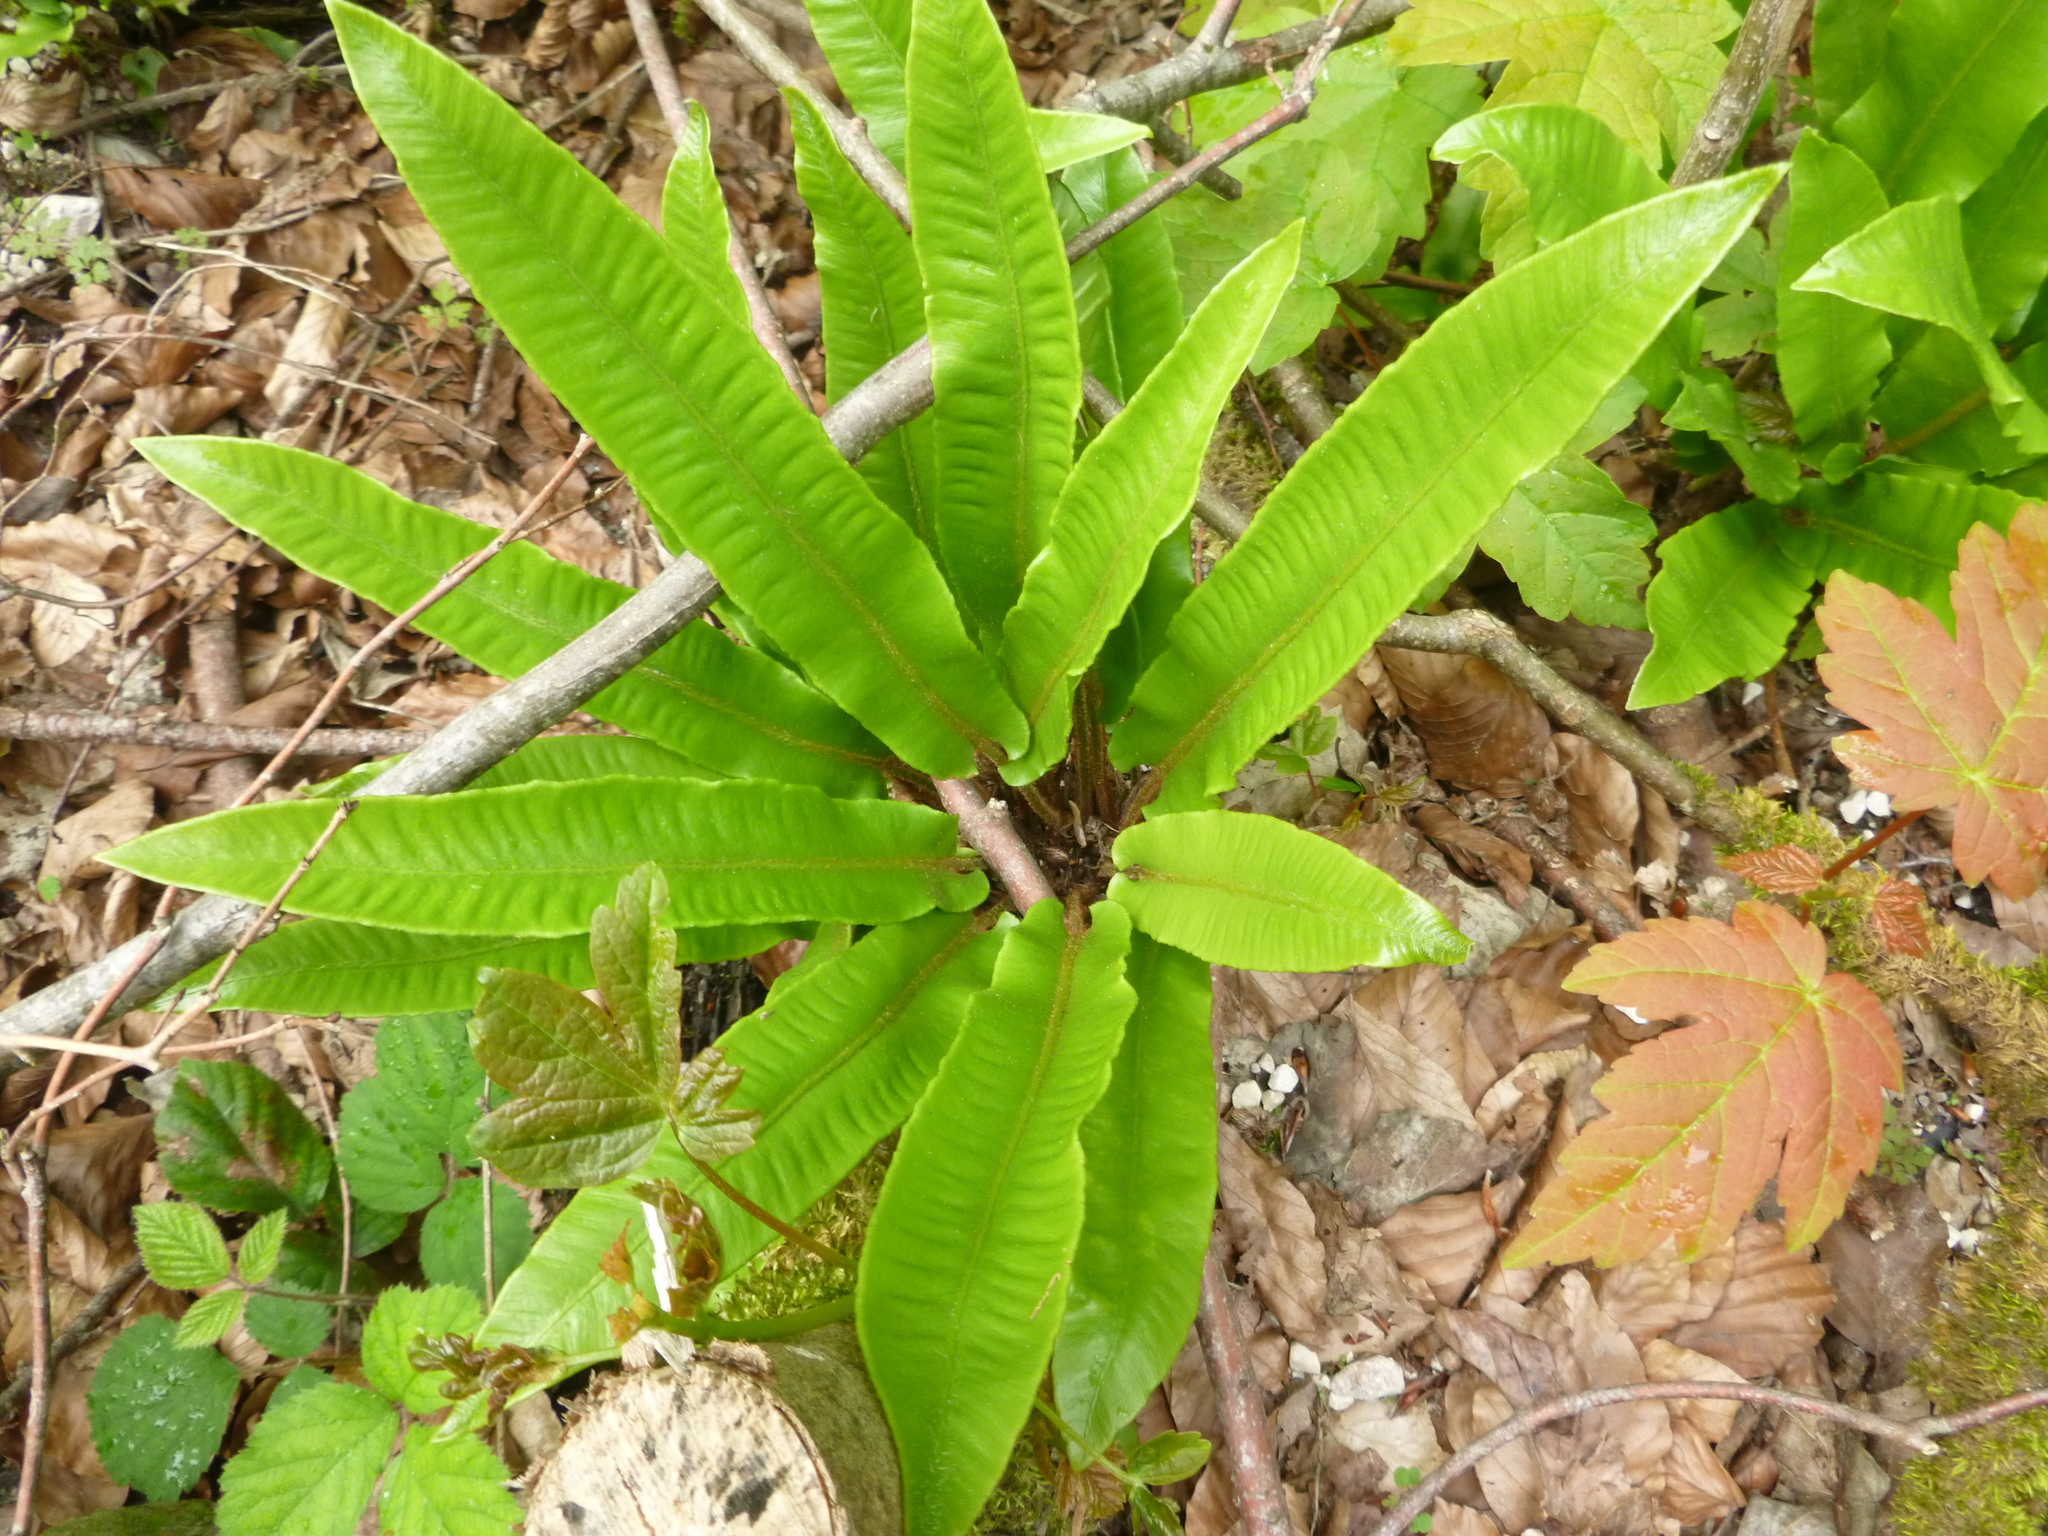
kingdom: Plantae
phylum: Tracheophyta
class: Polypodiopsida
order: Polypodiales
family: Aspleniaceae
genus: Asplenium
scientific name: Asplenium scolopendrium
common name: Hart's-tongue fern
